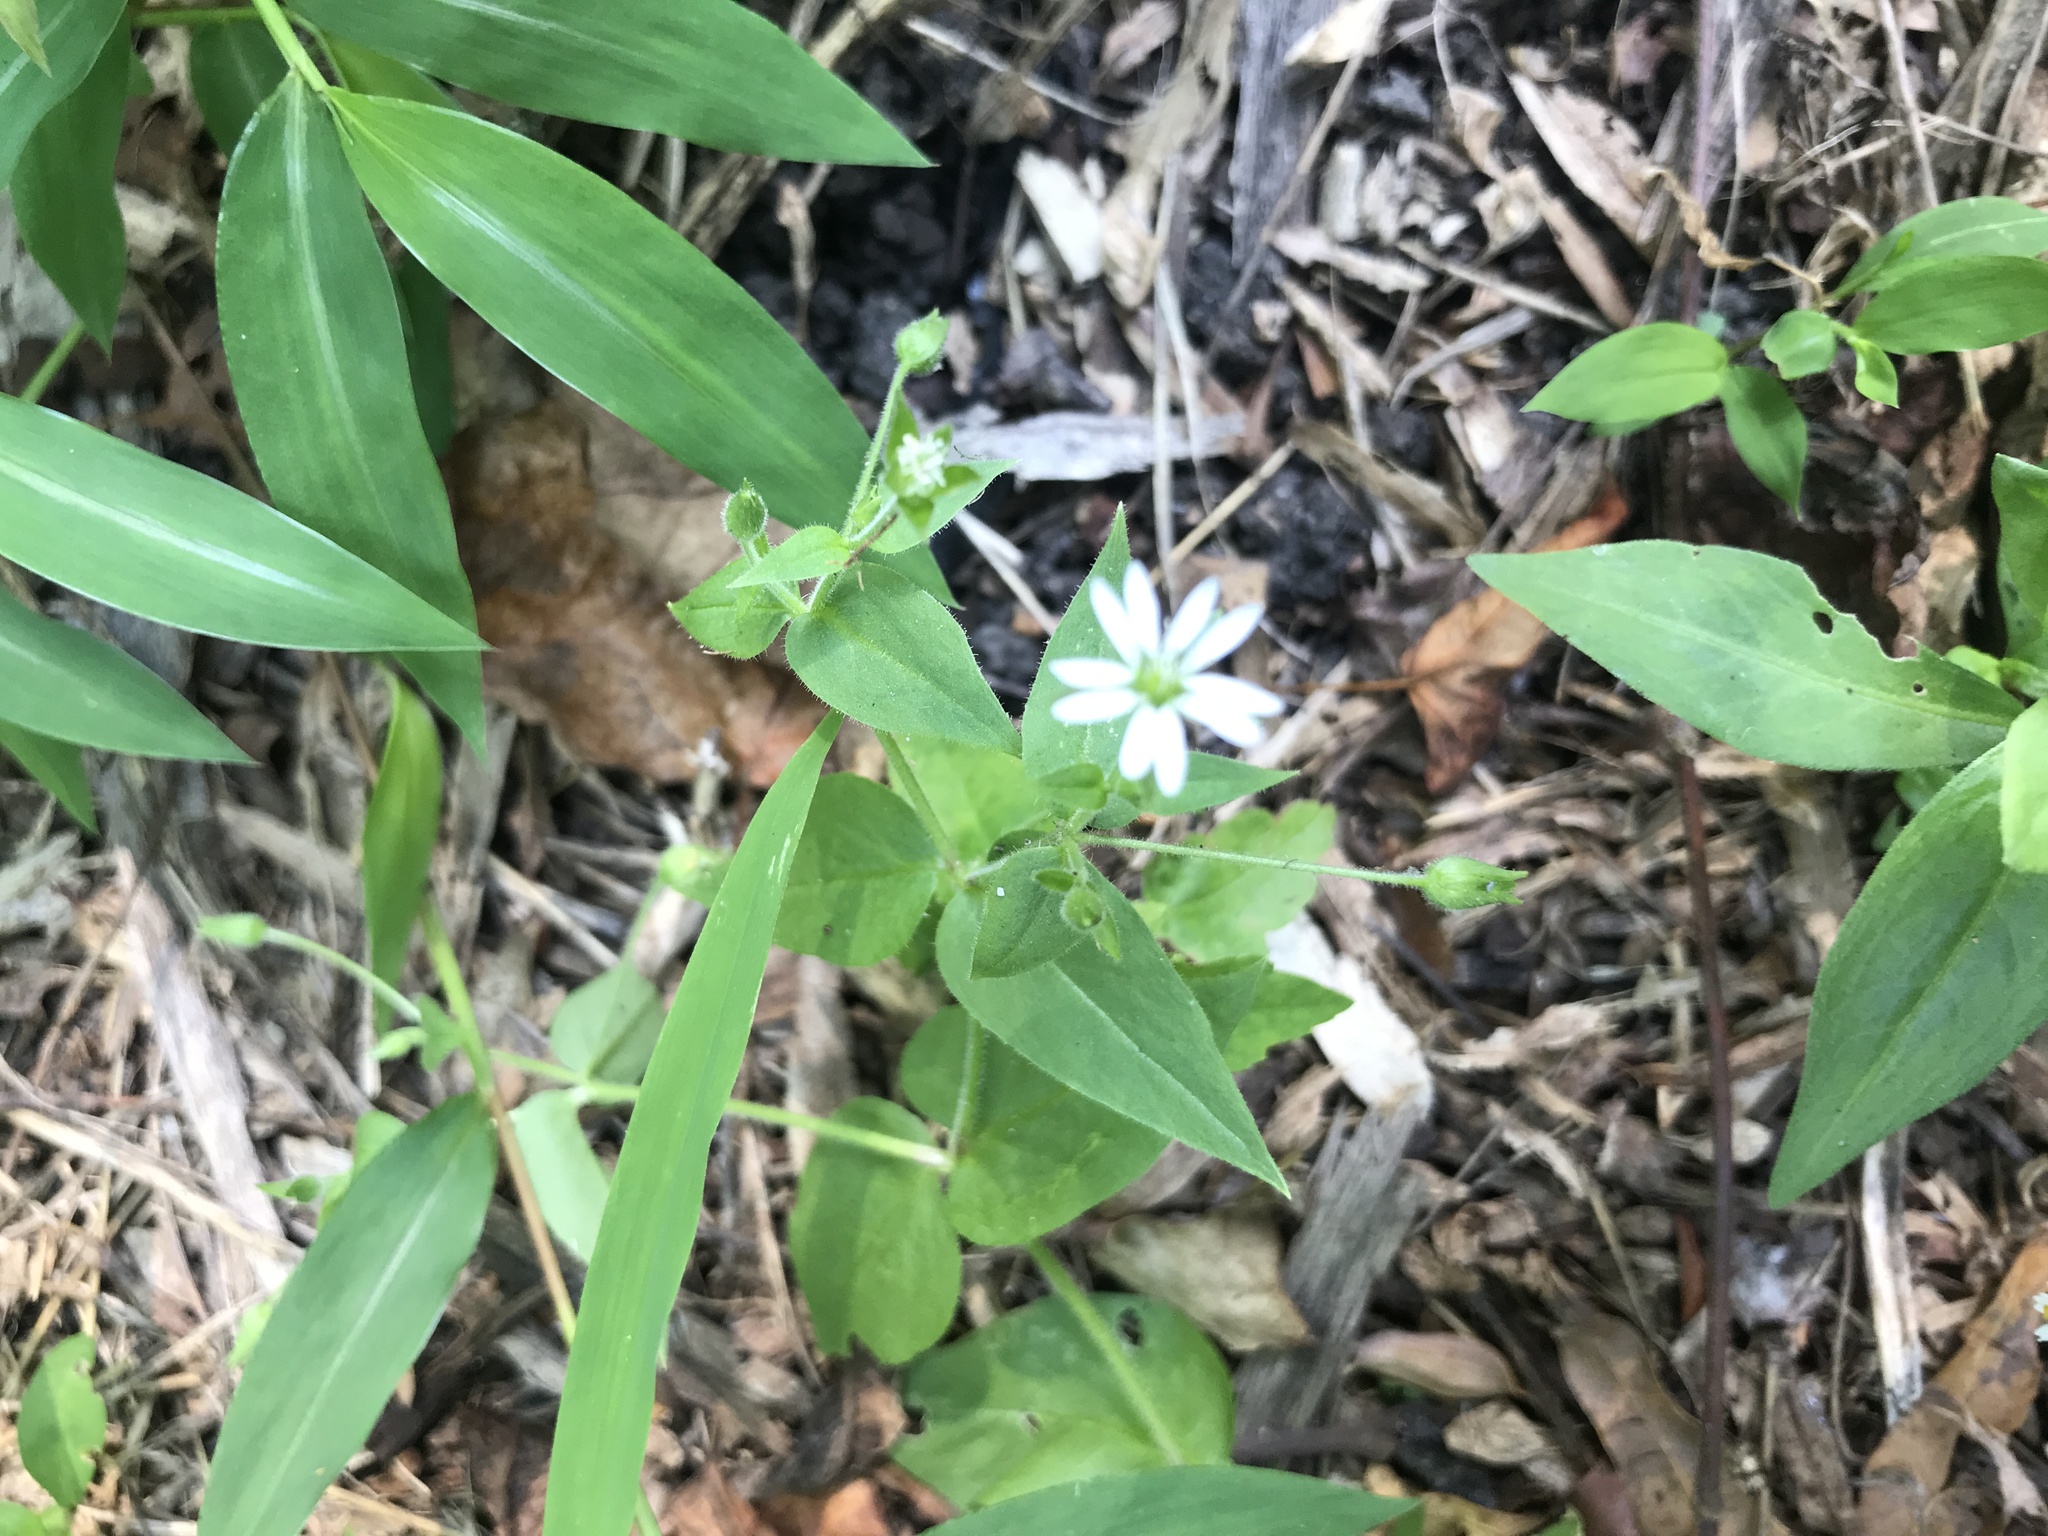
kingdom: Plantae
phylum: Tracheophyta
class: Magnoliopsida
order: Caryophyllales
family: Caryophyllaceae
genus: Stellaria
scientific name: Stellaria aquatica
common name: Water chickweed
